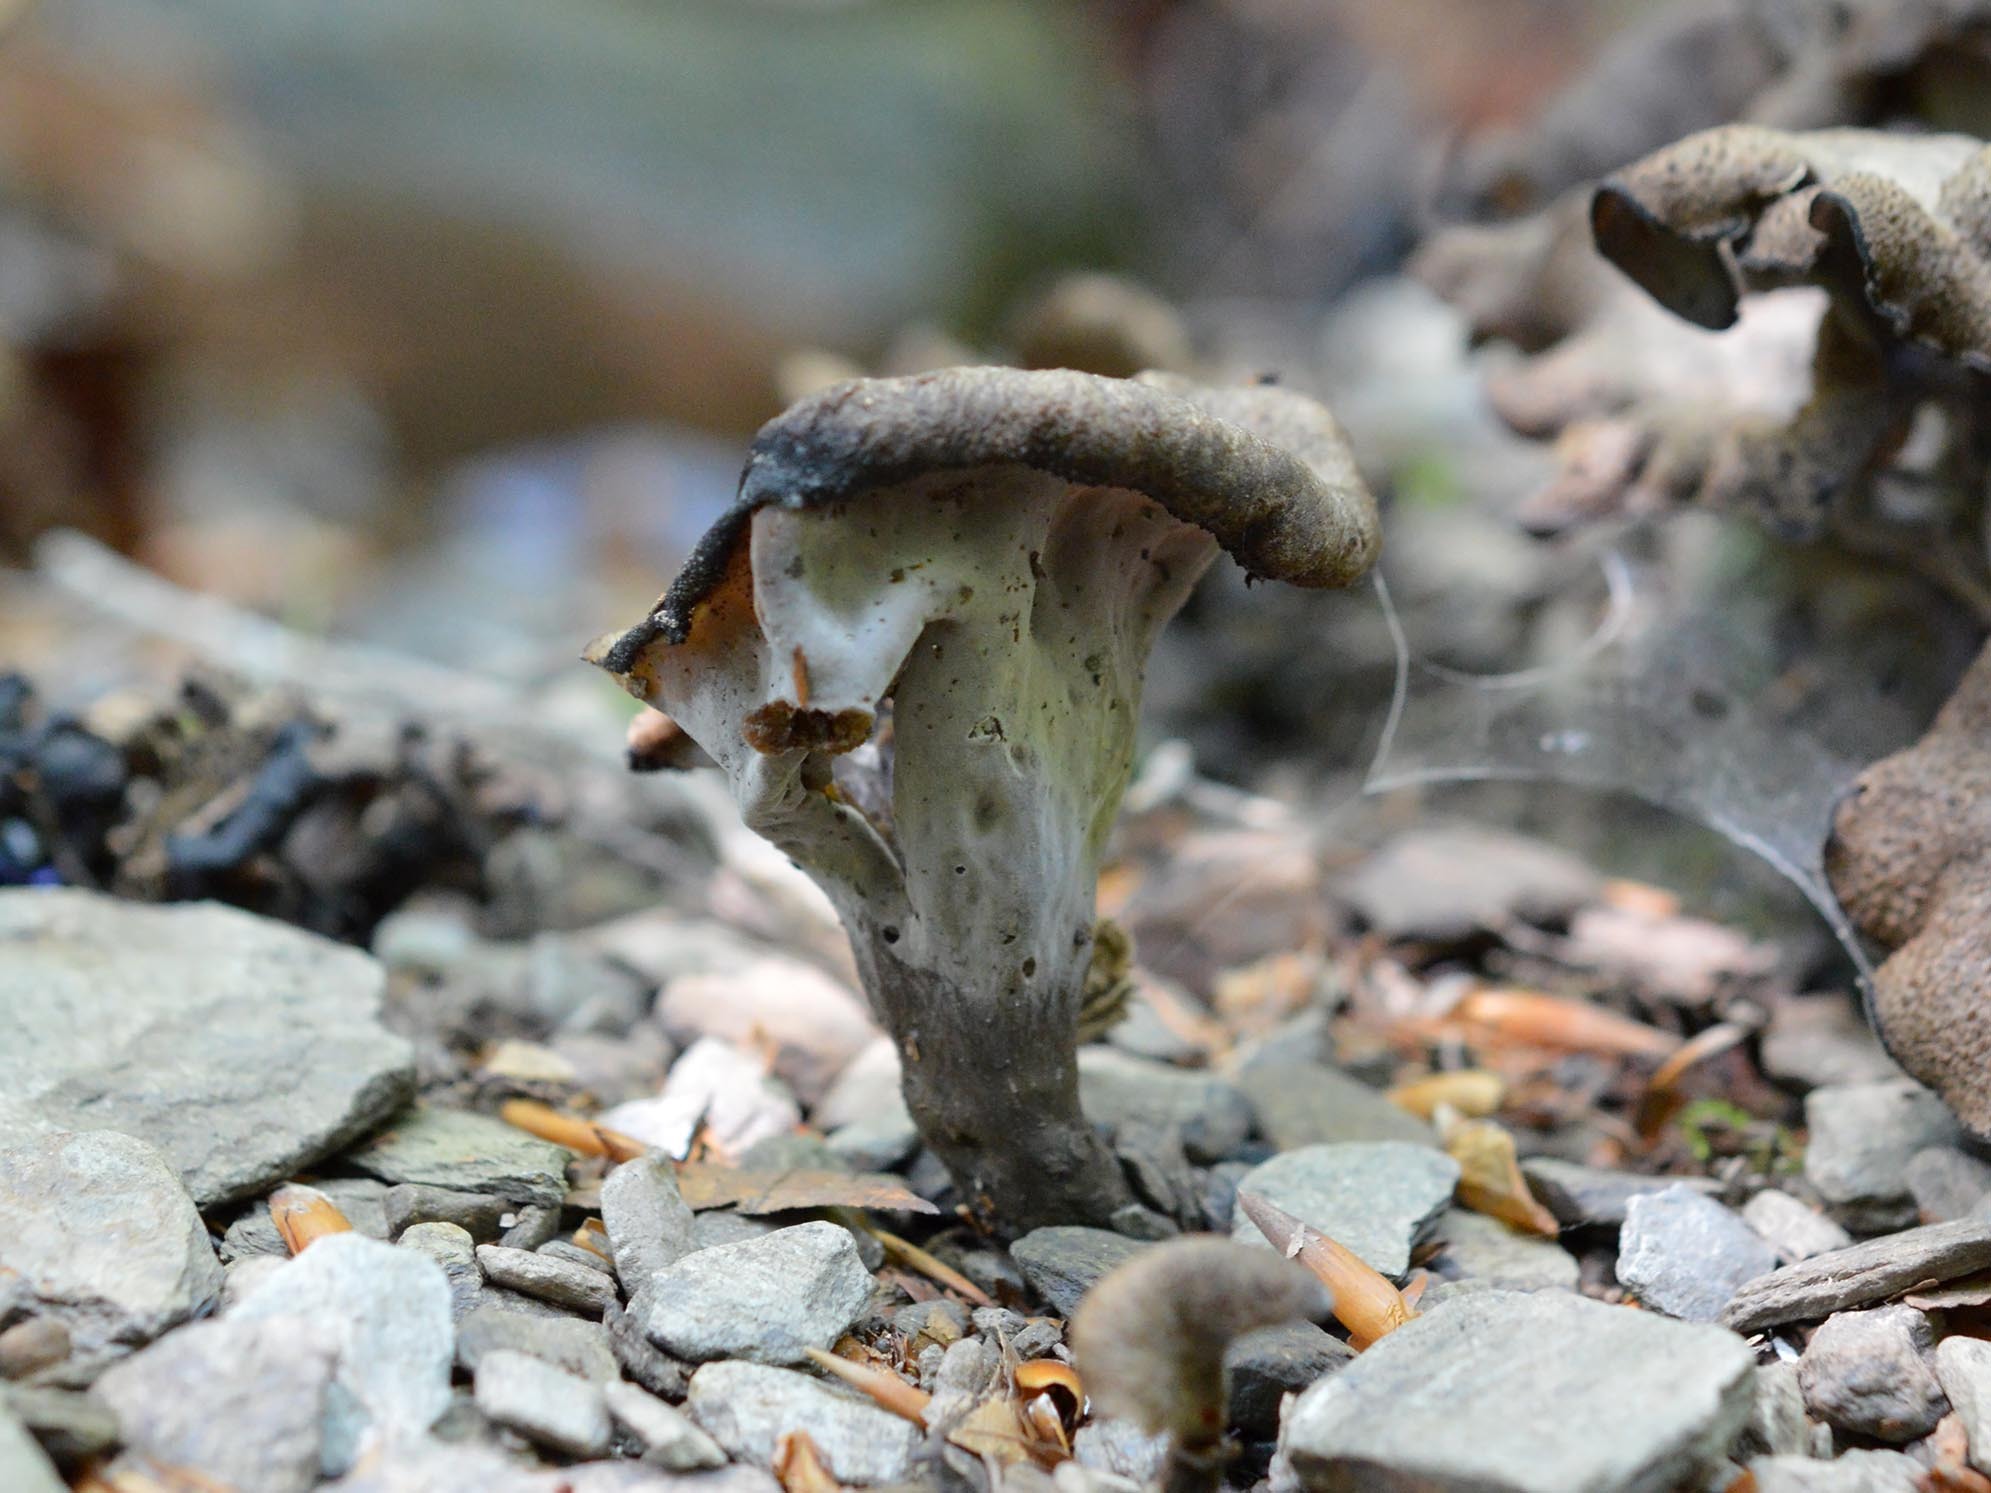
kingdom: Fungi
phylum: Basidiomycota
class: Agaricomycetes
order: Cantharellales
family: Hydnaceae
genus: Craterellus
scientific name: Craterellus cornucopioides
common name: Horn of plenty
